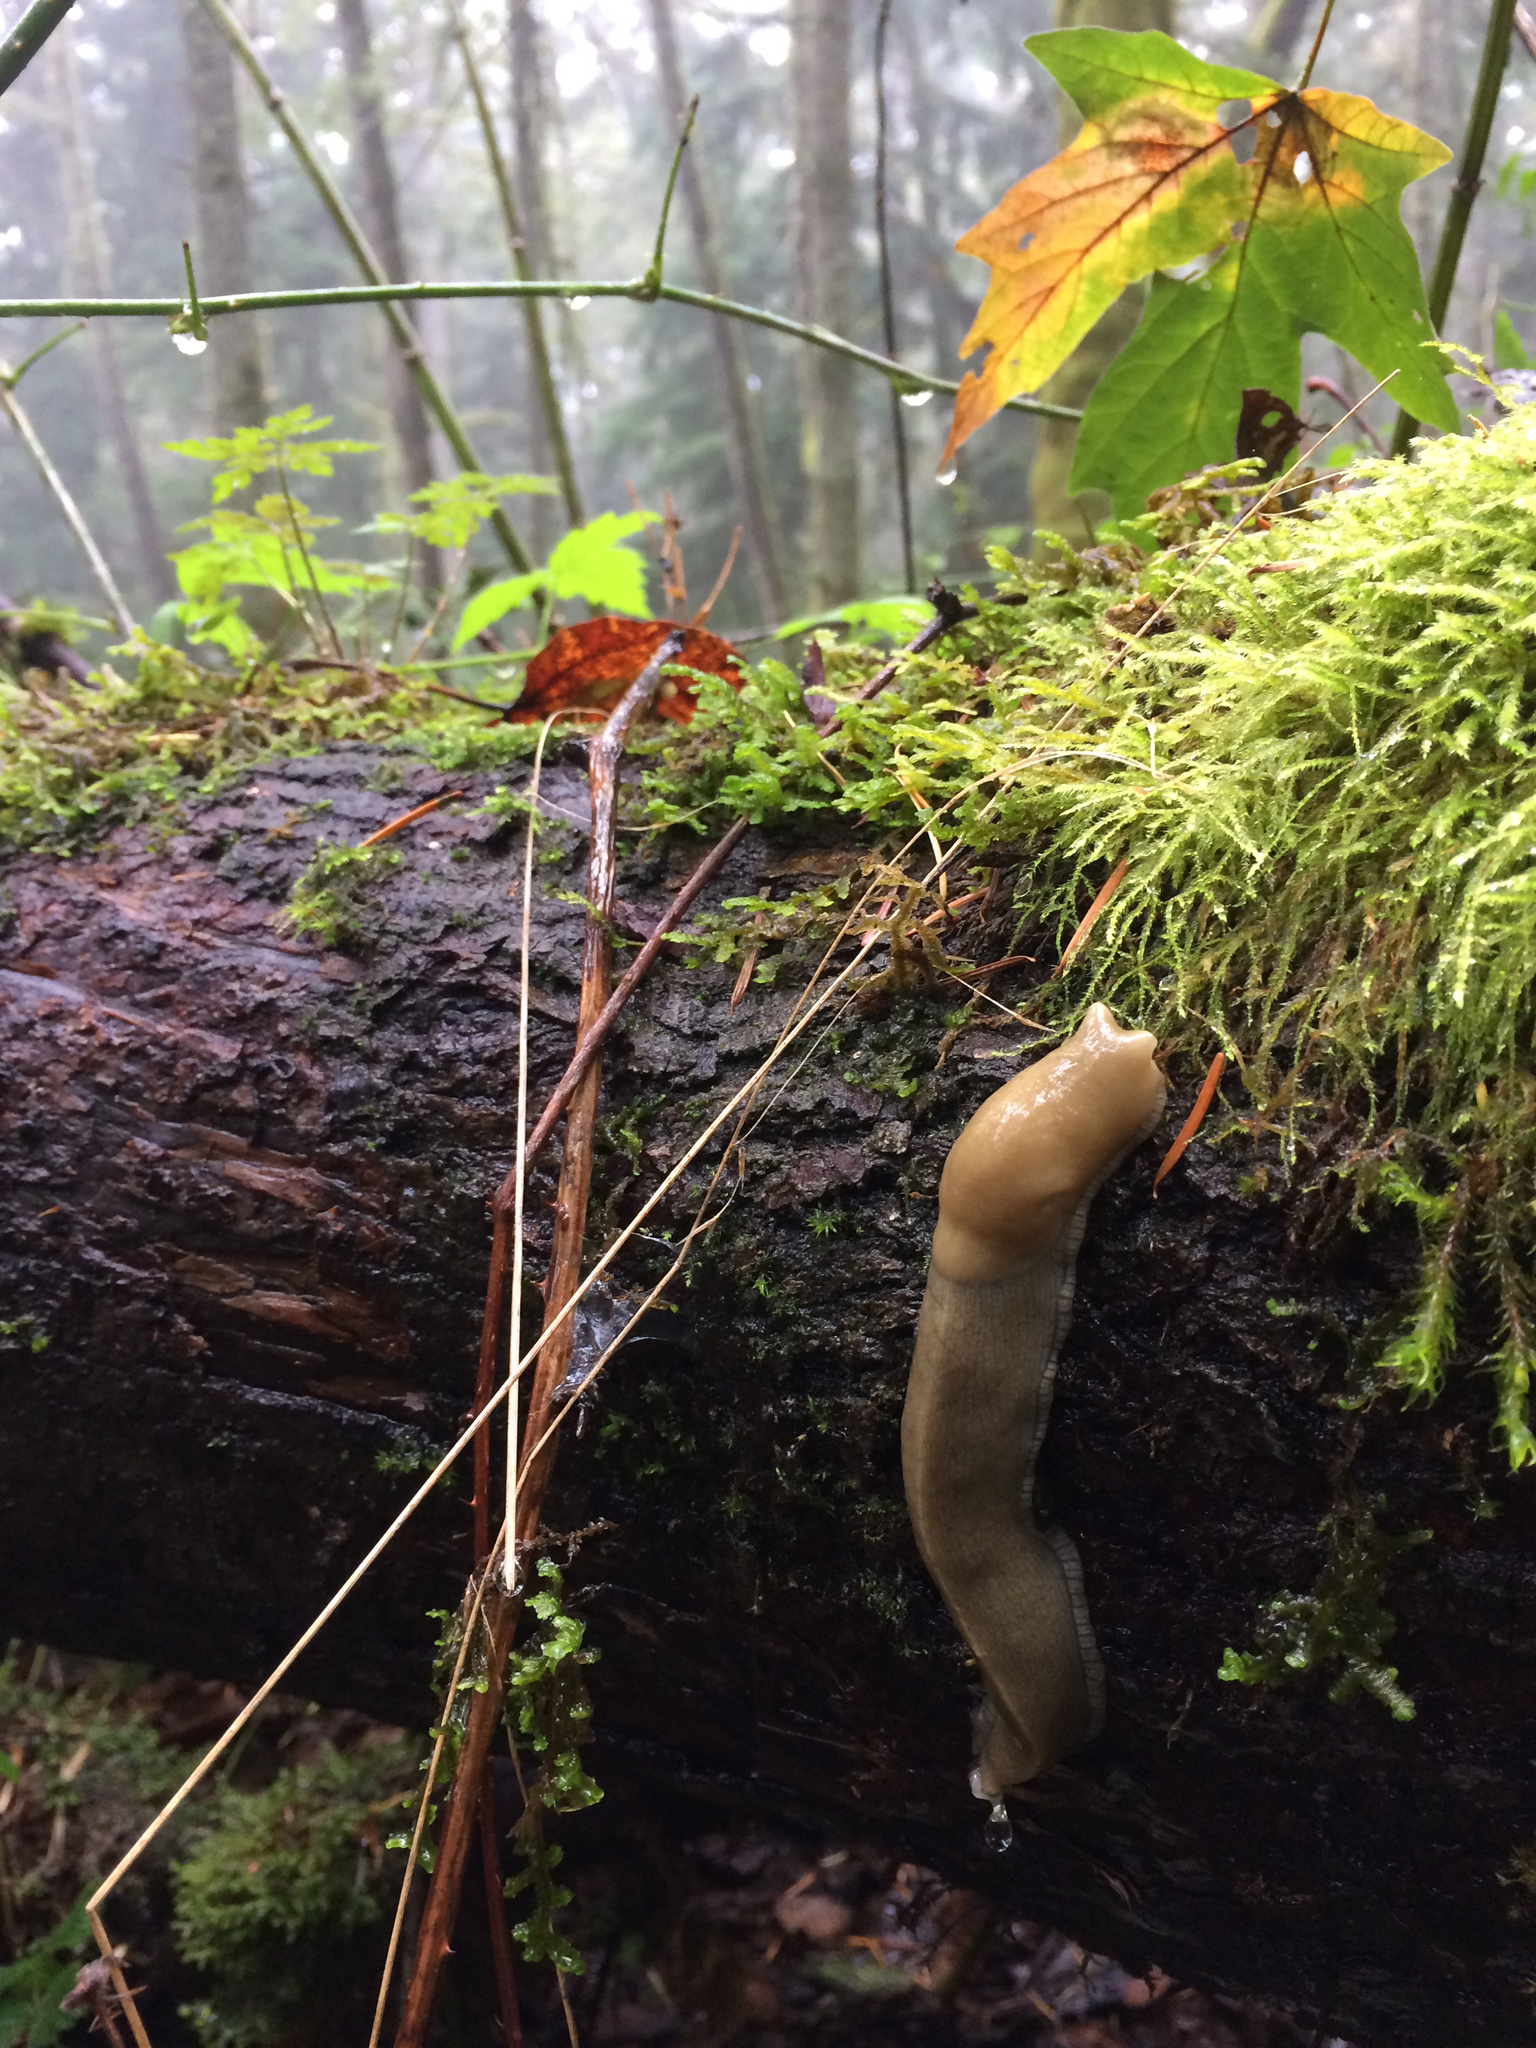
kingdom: Animalia
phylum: Mollusca
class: Gastropoda
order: Stylommatophora
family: Ariolimacidae
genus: Ariolimax
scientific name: Ariolimax columbianus
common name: Pacific banana slug
